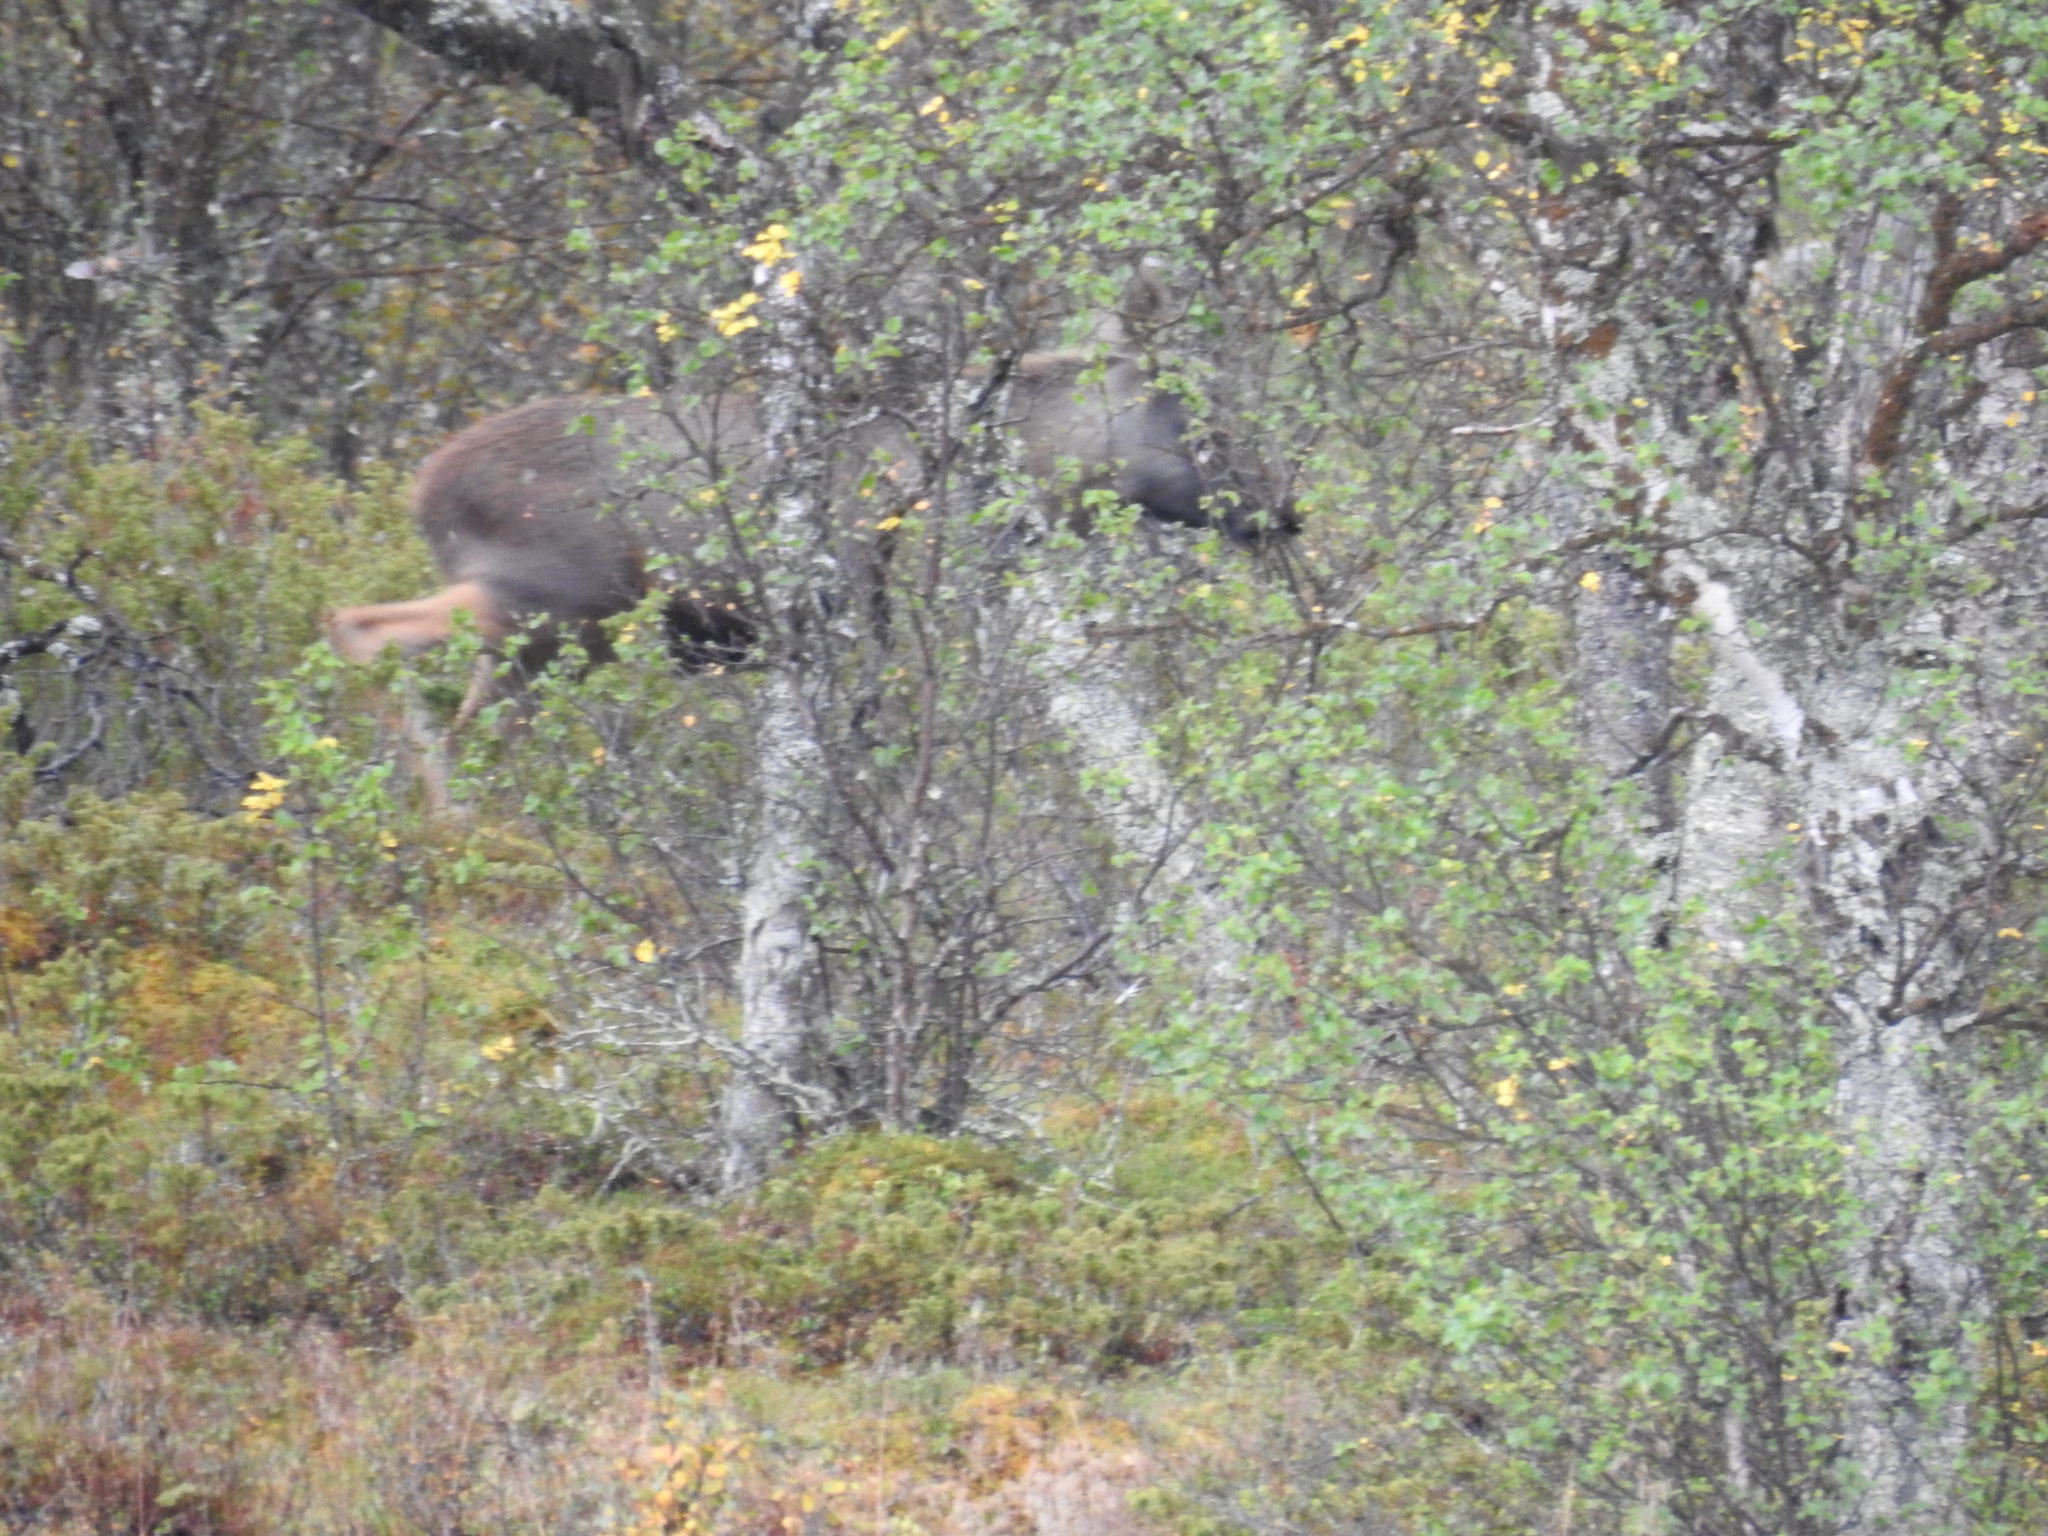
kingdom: Animalia
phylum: Chordata
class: Mammalia
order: Artiodactyla
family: Cervidae
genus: Alces
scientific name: Alces alces
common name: Moose
